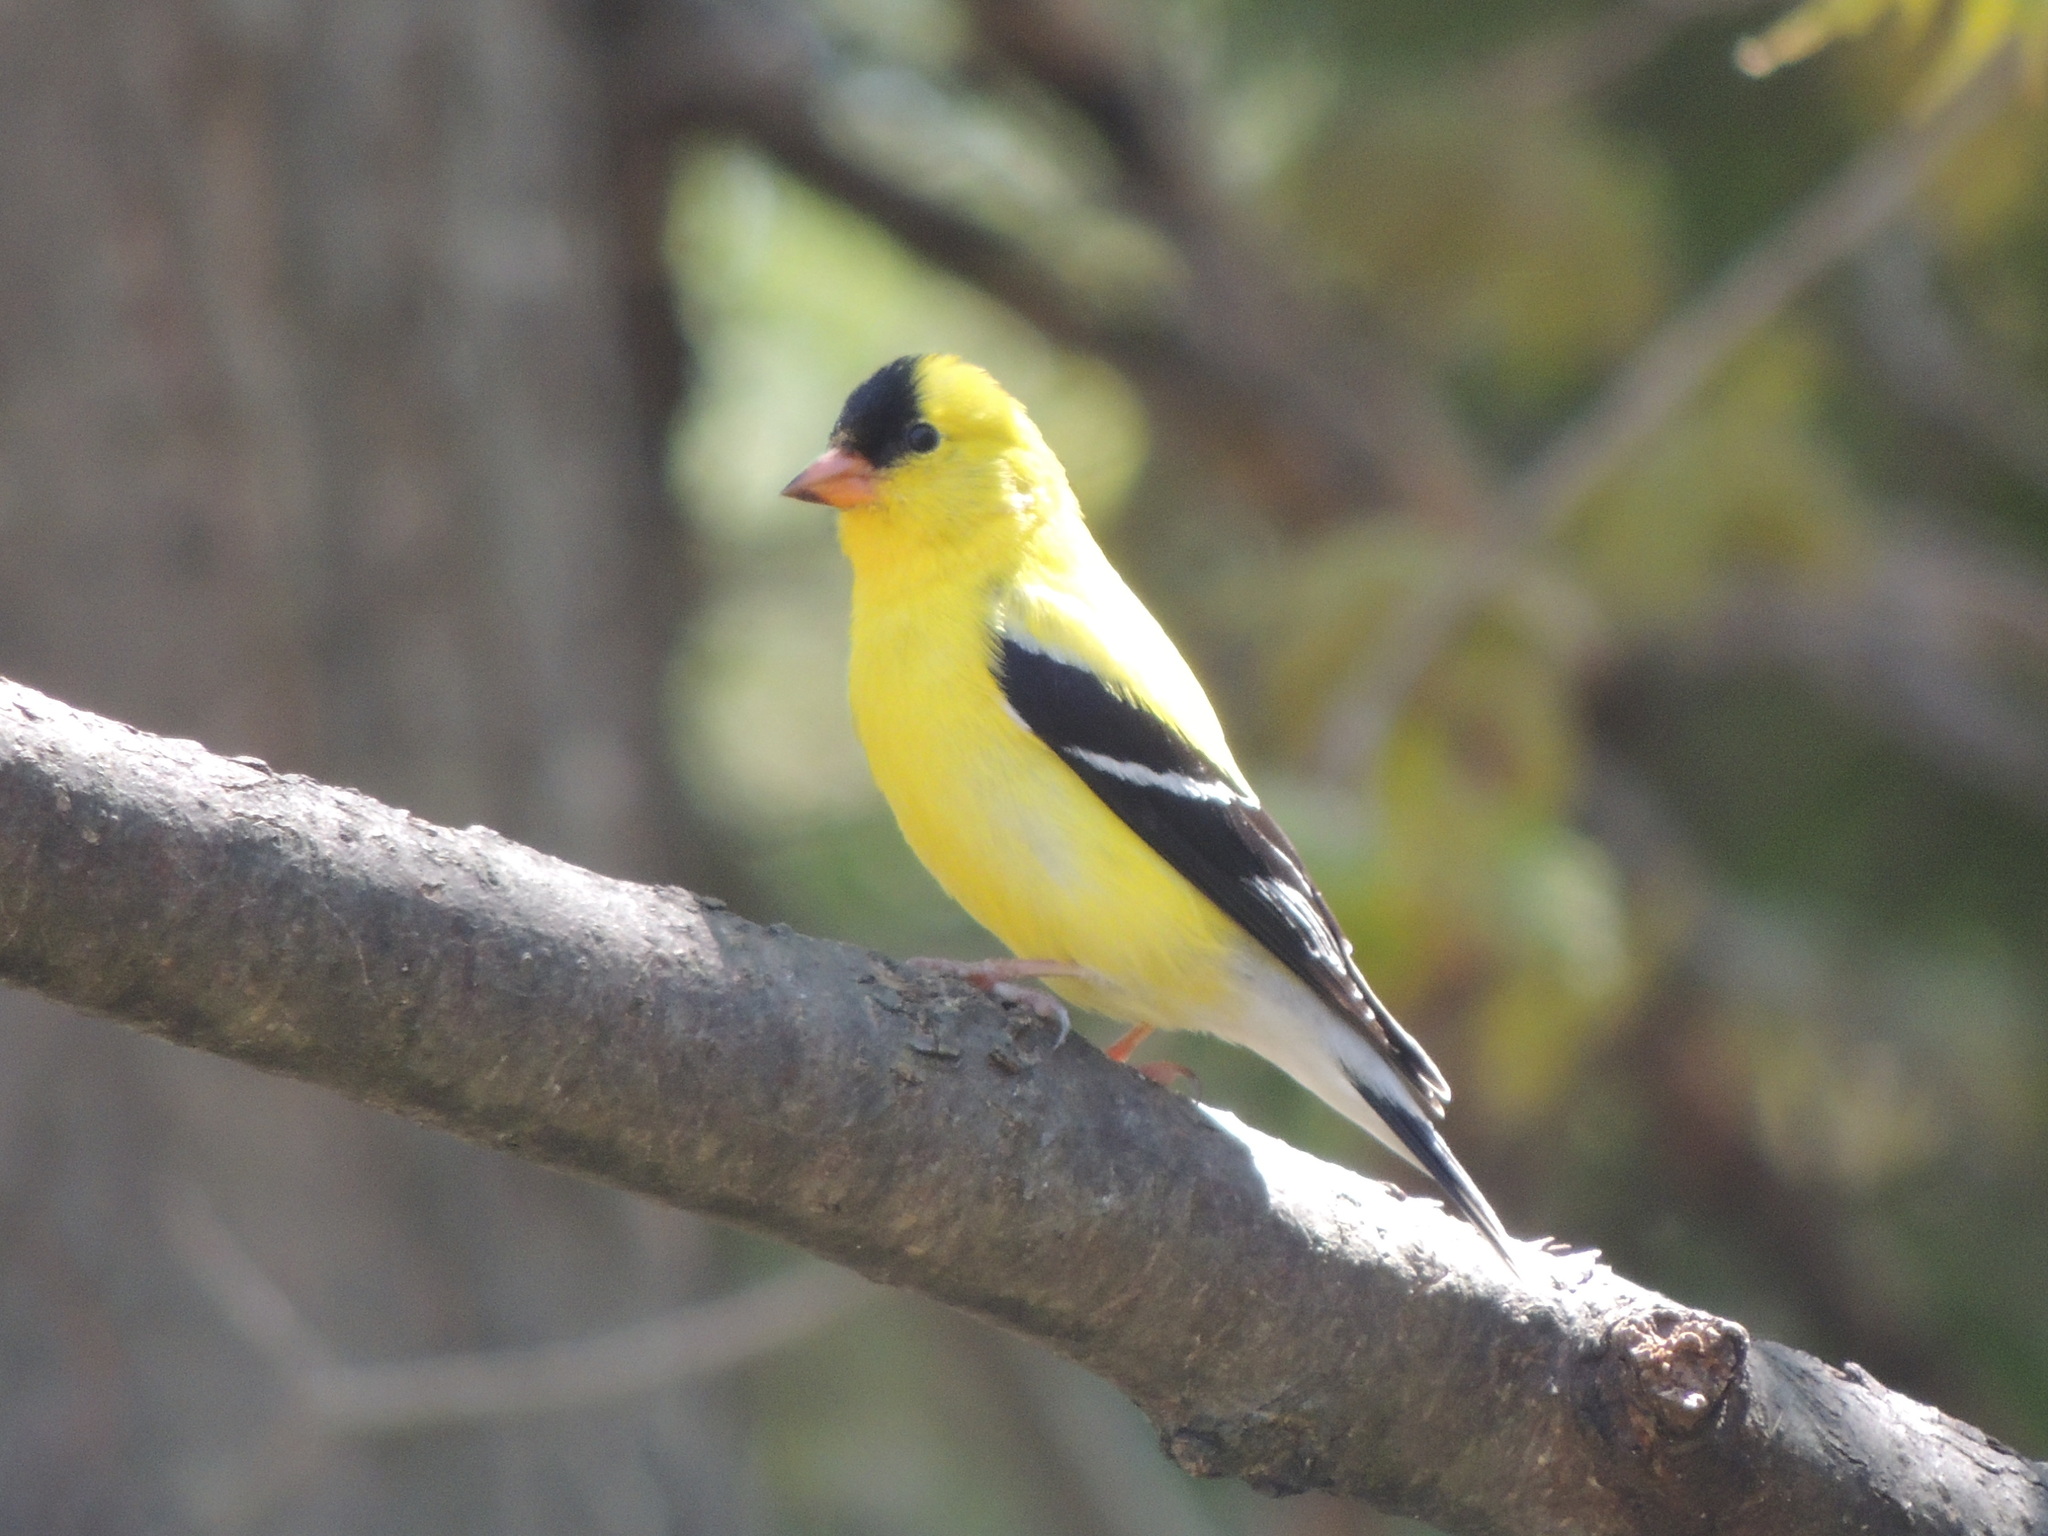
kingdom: Animalia
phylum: Chordata
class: Aves
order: Passeriformes
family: Fringillidae
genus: Spinus
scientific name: Spinus tristis
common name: American goldfinch
